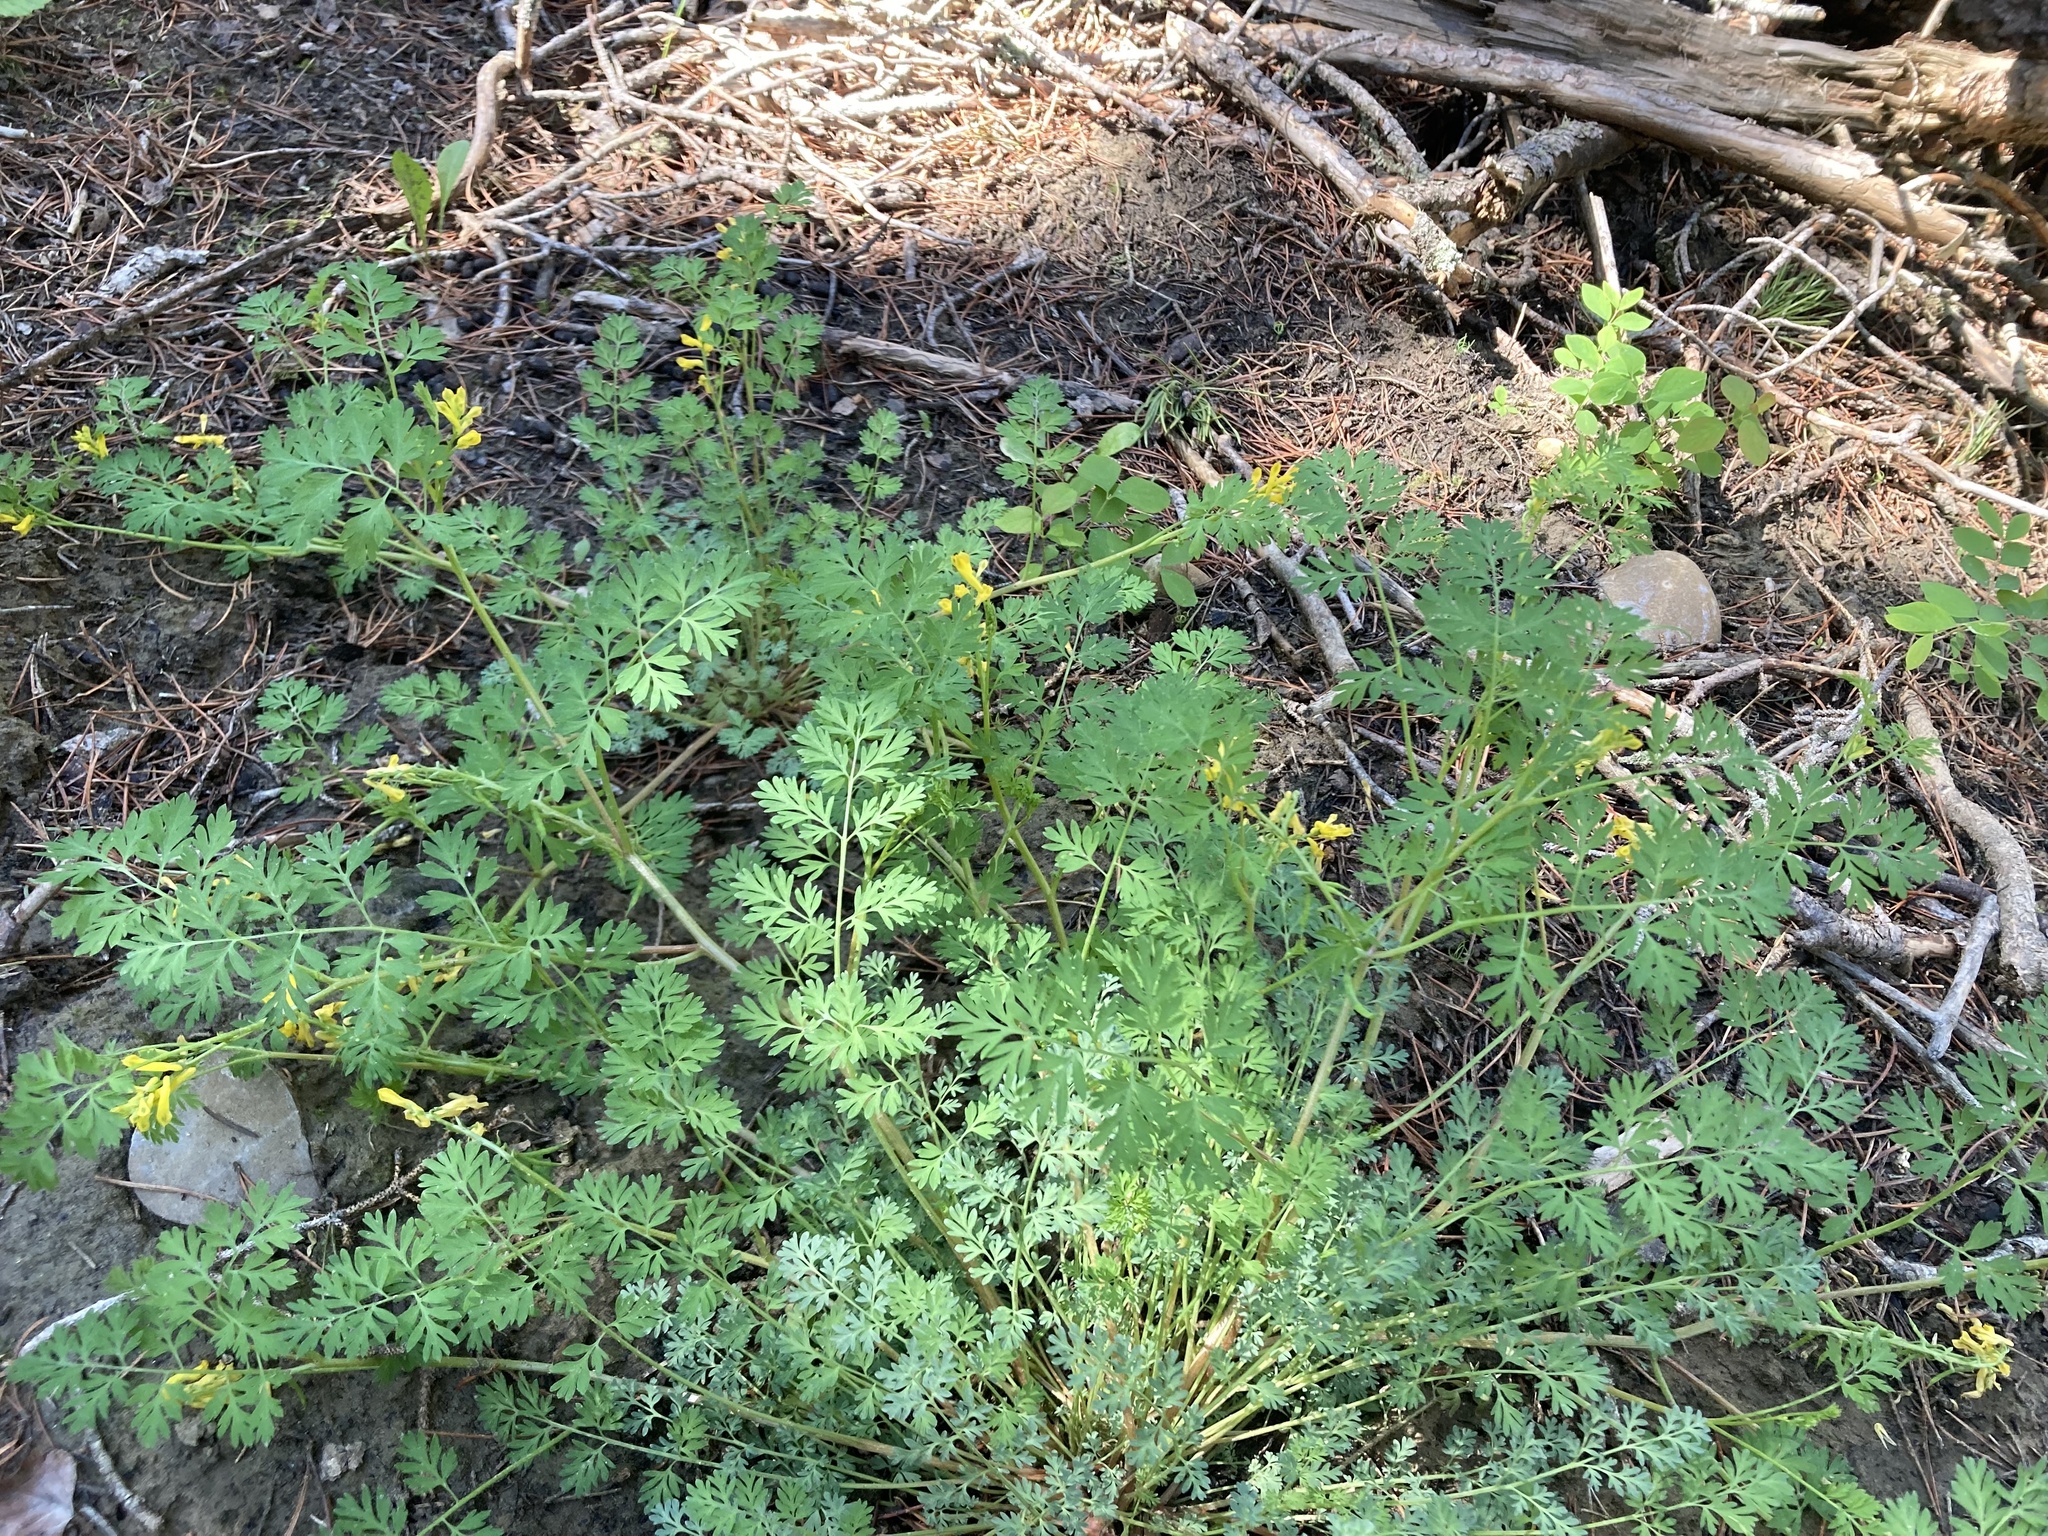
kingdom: Plantae
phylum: Tracheophyta
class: Magnoliopsida
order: Ranunculales
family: Papaveraceae
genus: Corydalis
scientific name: Corydalis aurea
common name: Golden corydalis
